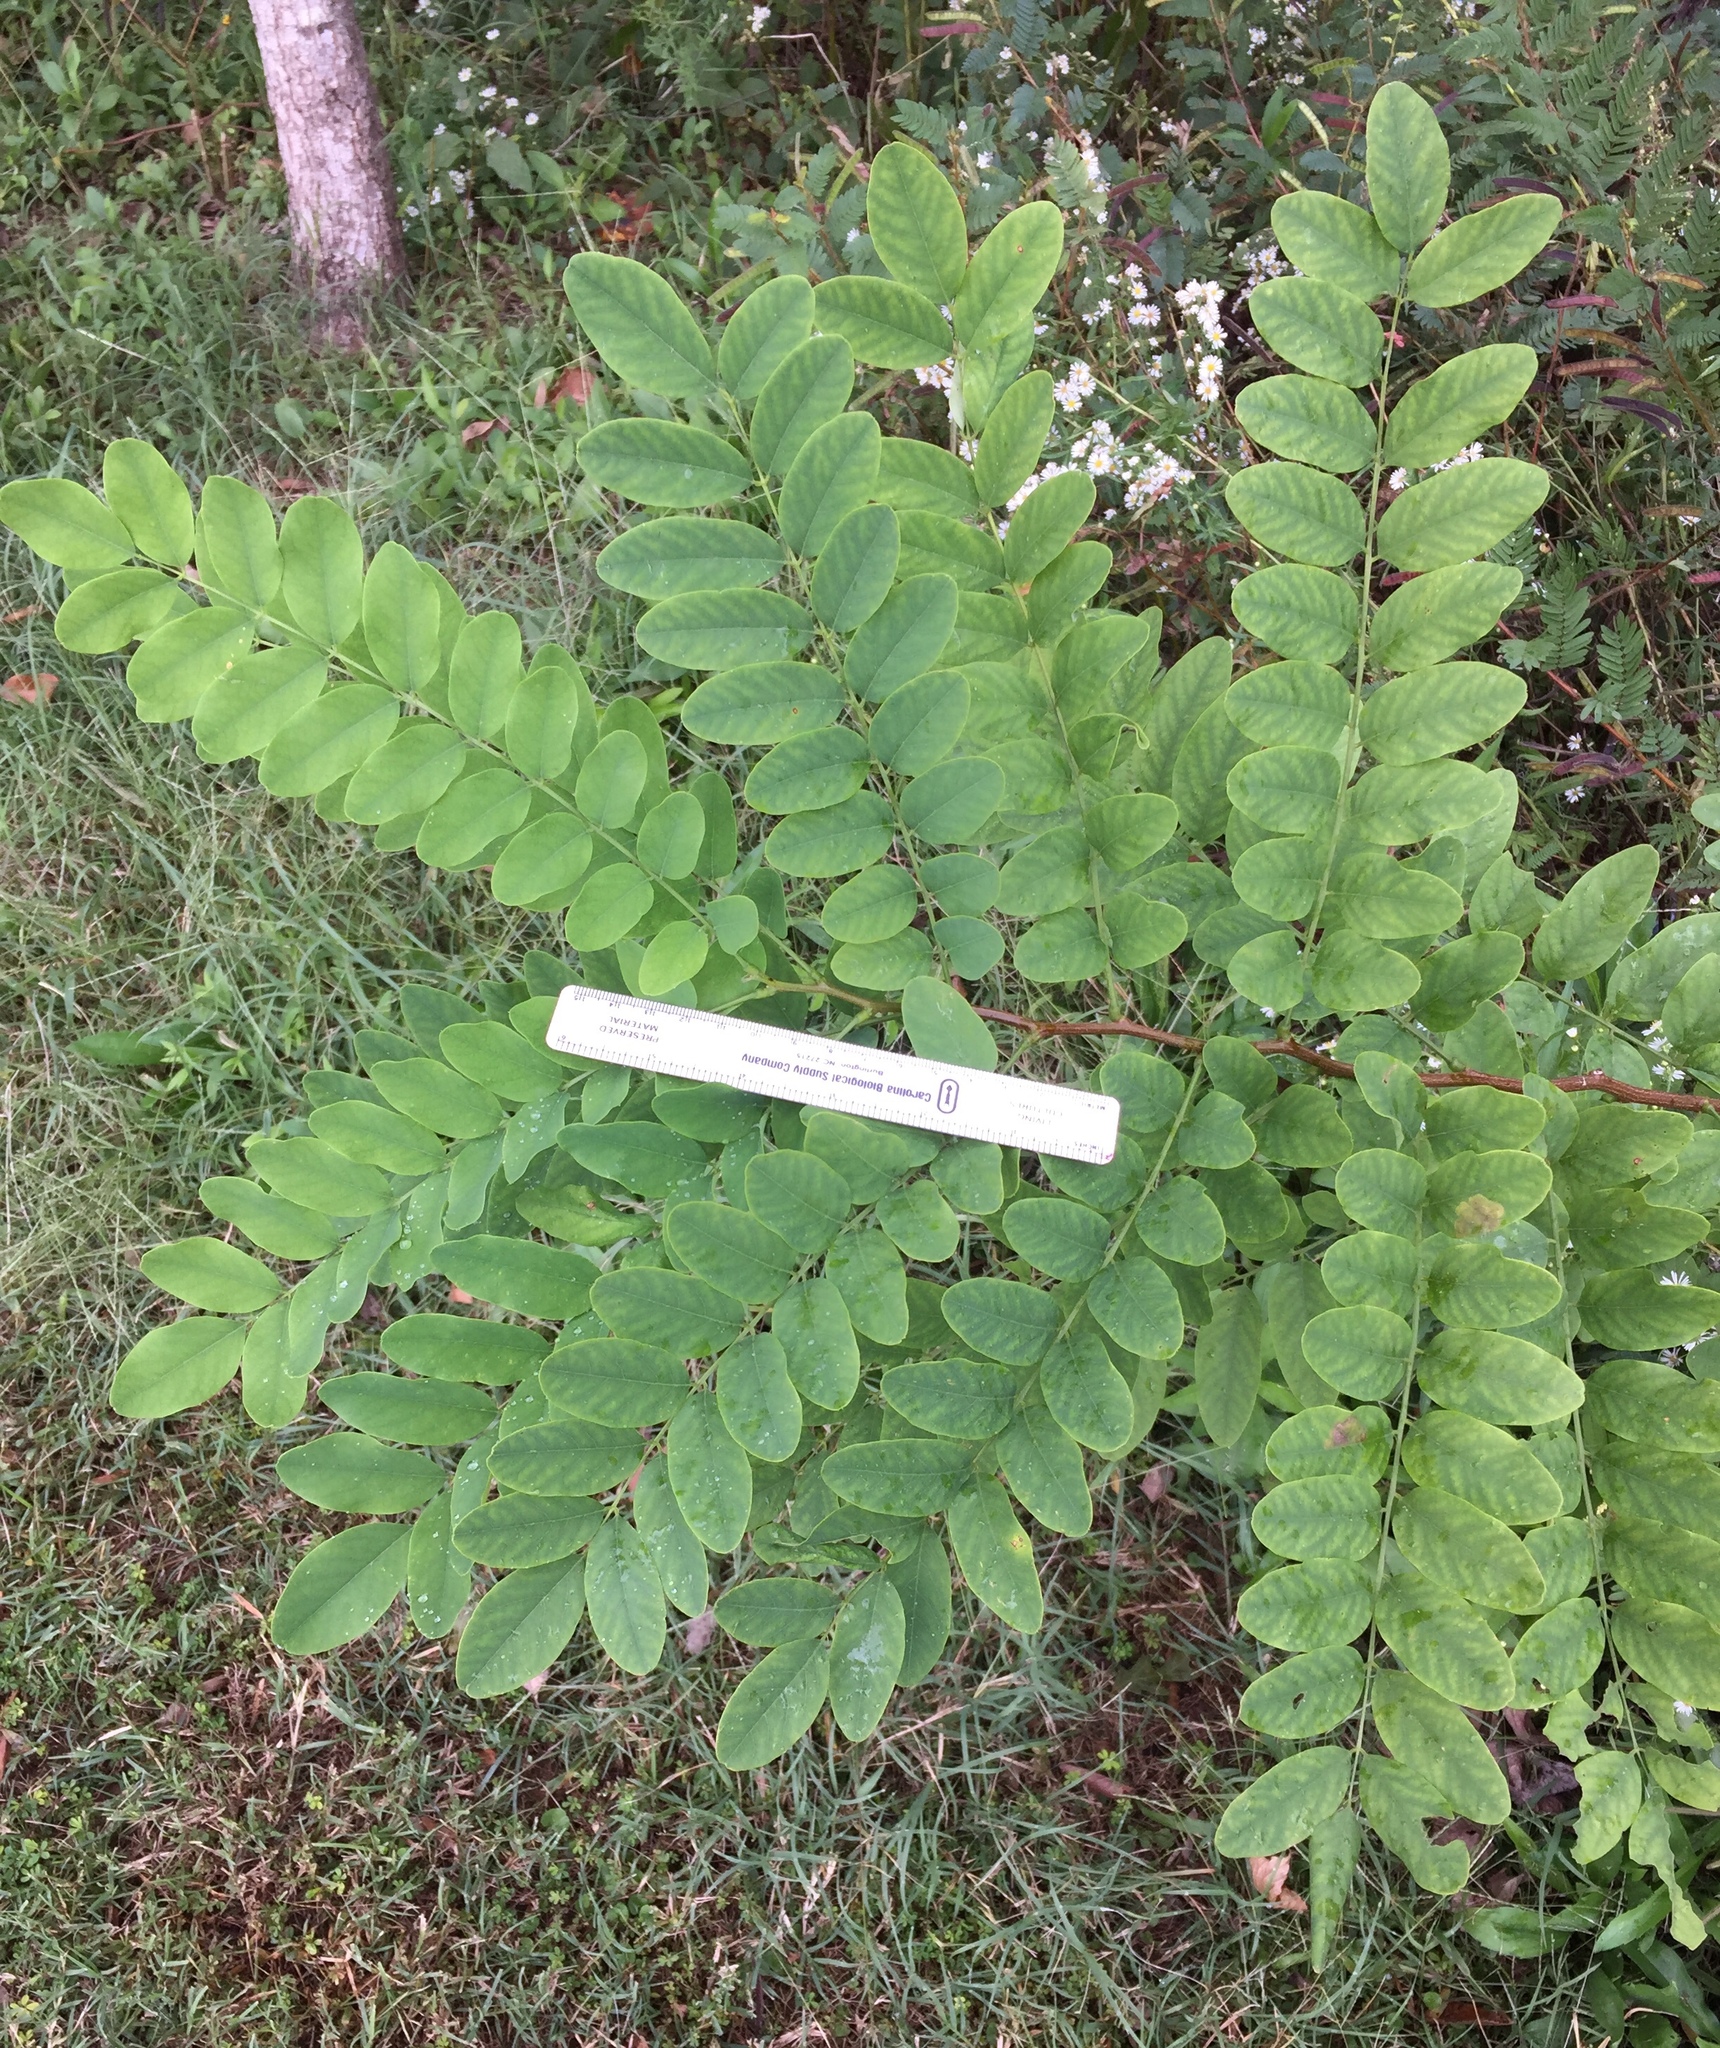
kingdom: Plantae
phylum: Tracheophyta
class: Magnoliopsida
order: Fabales
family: Fabaceae
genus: Robinia
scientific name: Robinia pseudoacacia
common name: Black locust
